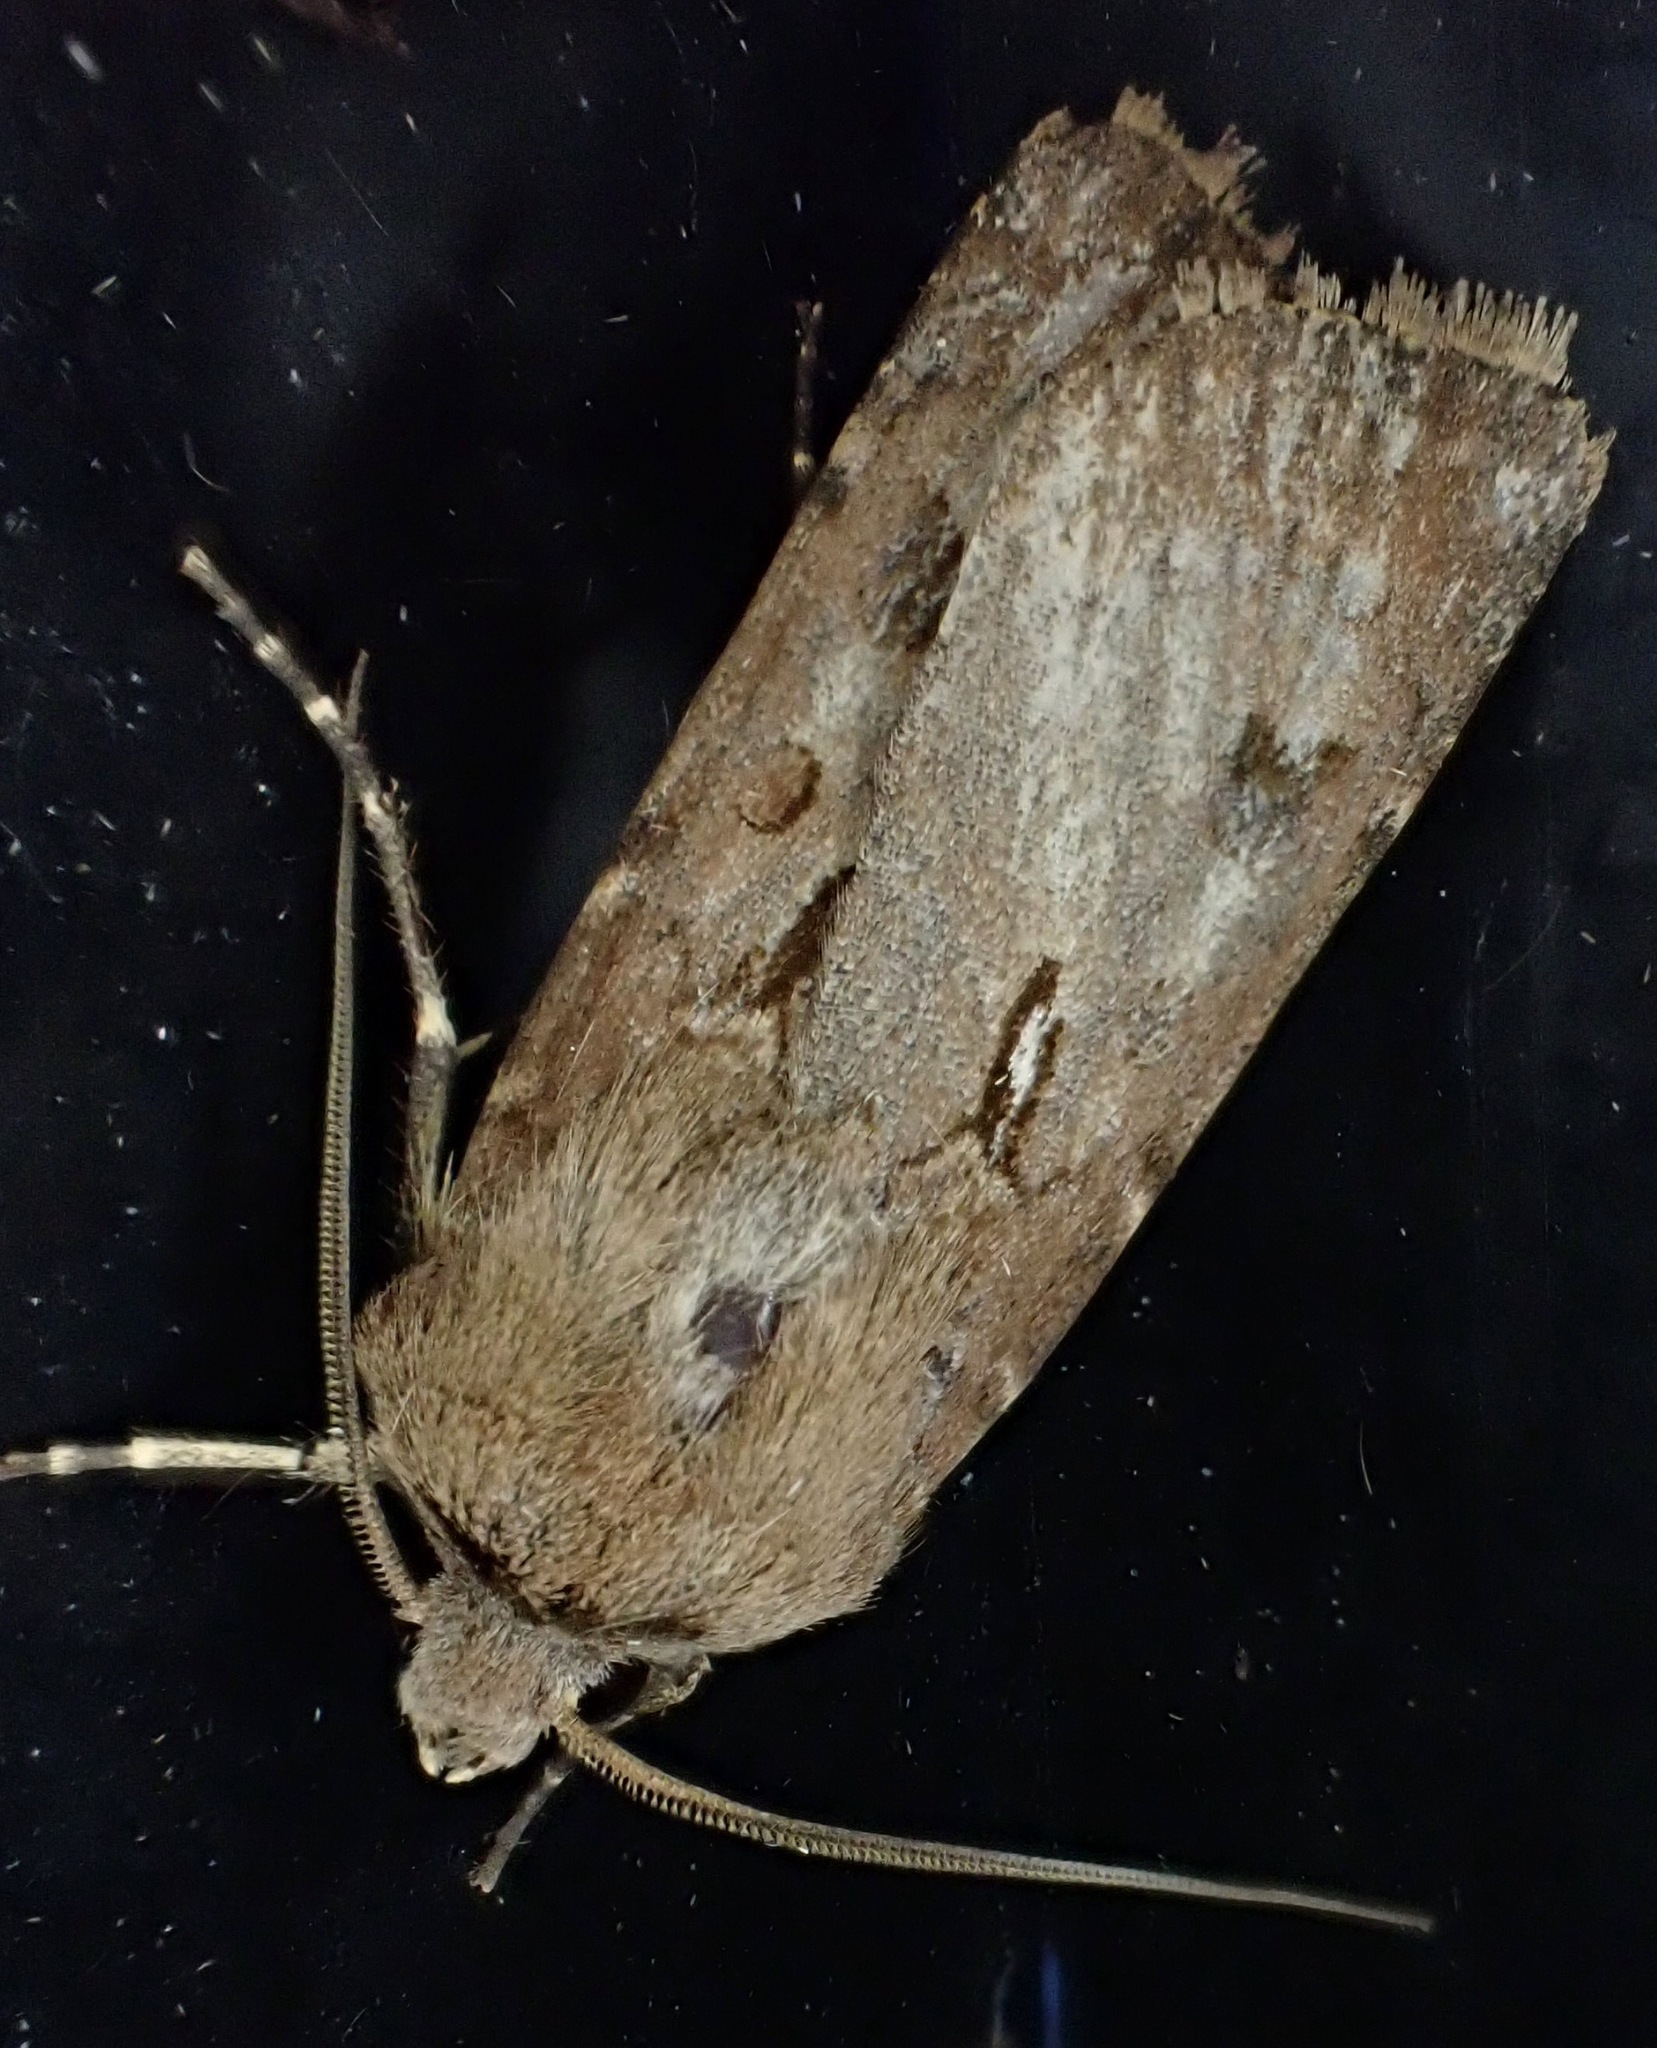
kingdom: Animalia
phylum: Arthropoda
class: Insecta
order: Lepidoptera
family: Noctuidae
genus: Agrotis
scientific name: Agrotis exclamationis
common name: Heart and dart
